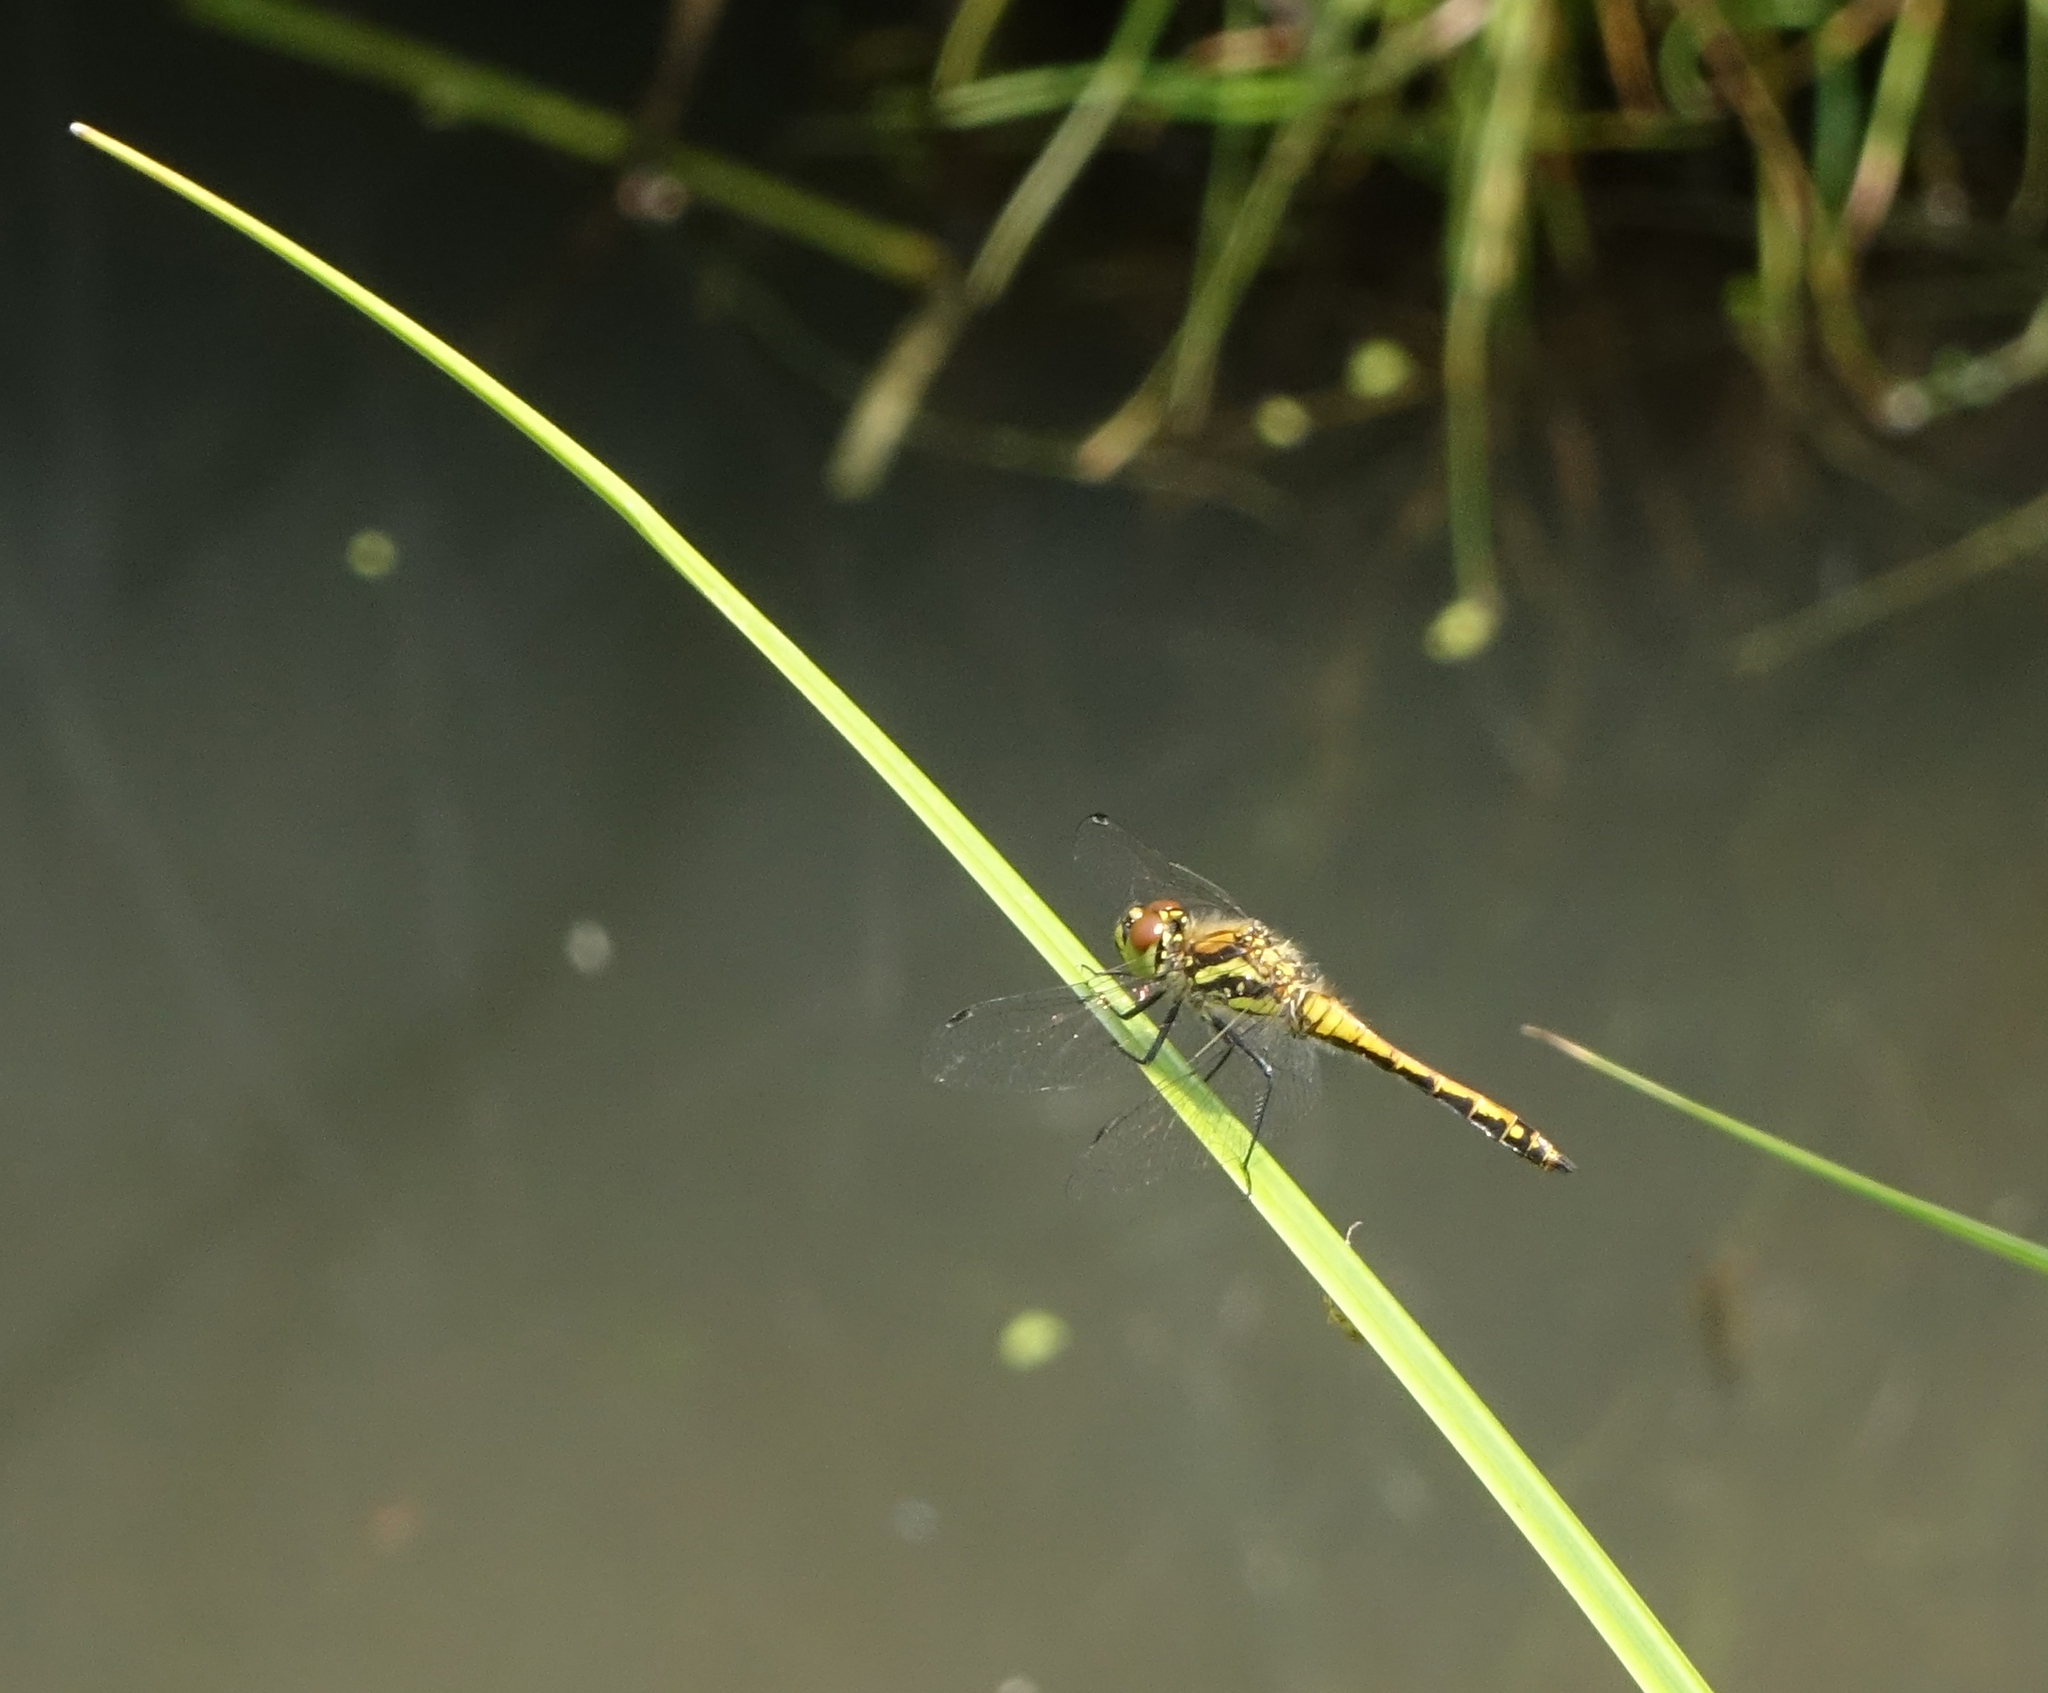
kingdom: Animalia
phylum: Arthropoda
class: Insecta
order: Odonata
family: Libellulidae
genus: Sympetrum
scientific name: Sympetrum danae
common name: Black darter
